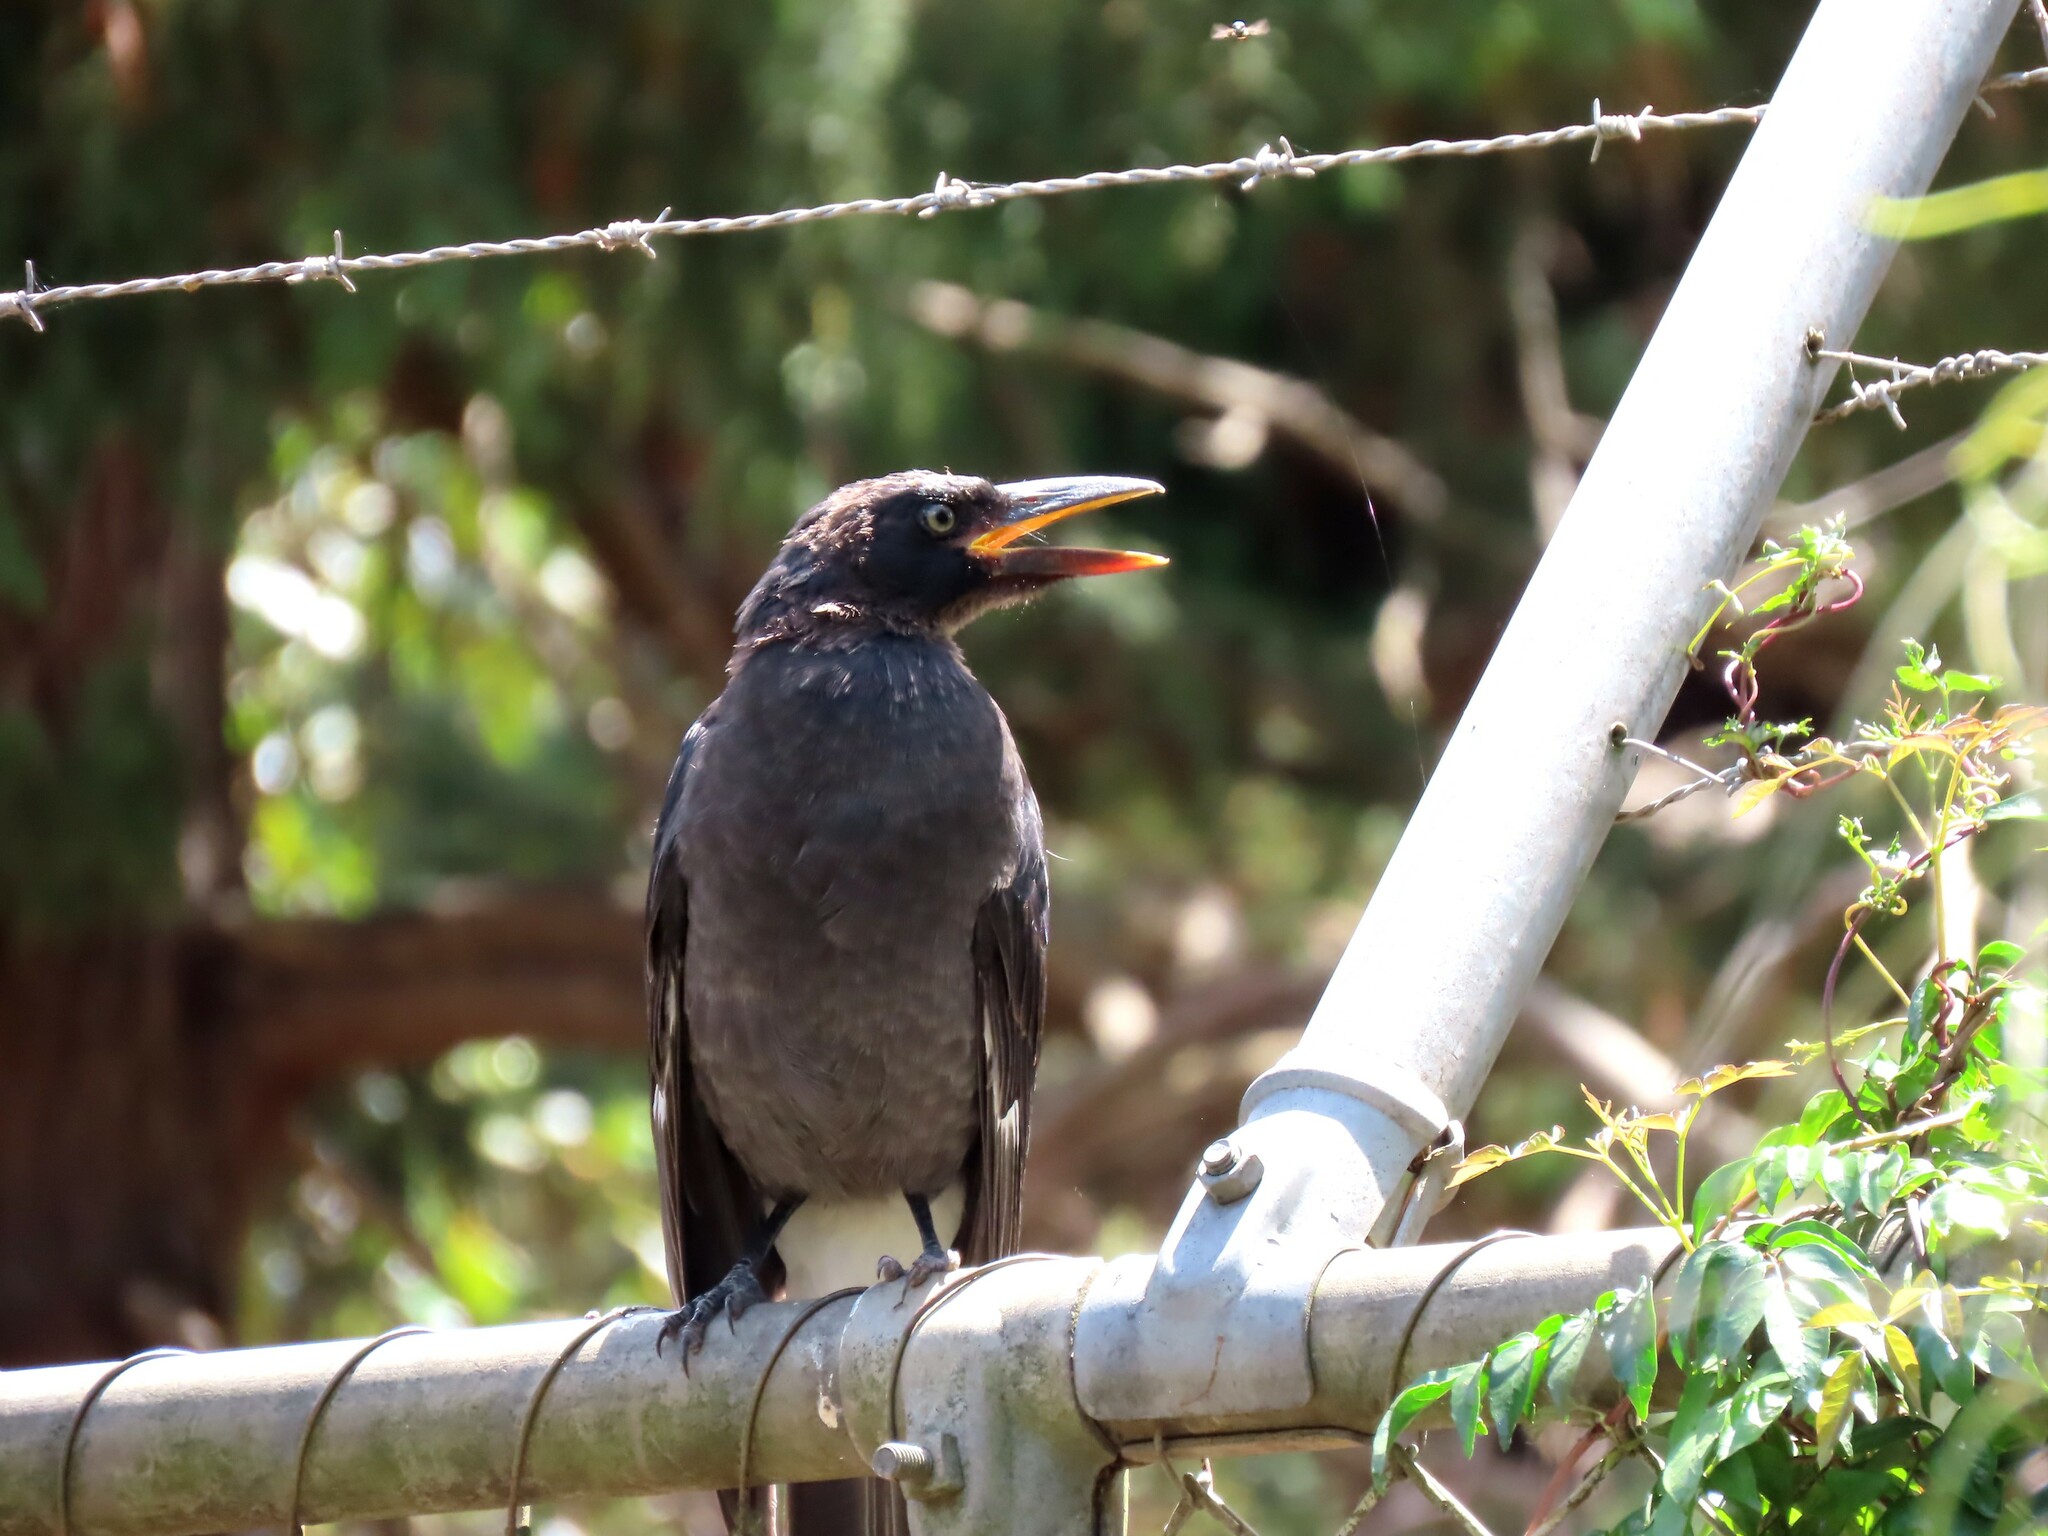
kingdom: Animalia
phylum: Chordata
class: Aves
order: Passeriformes
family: Cracticidae
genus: Strepera
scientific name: Strepera graculina
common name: Pied currawong
